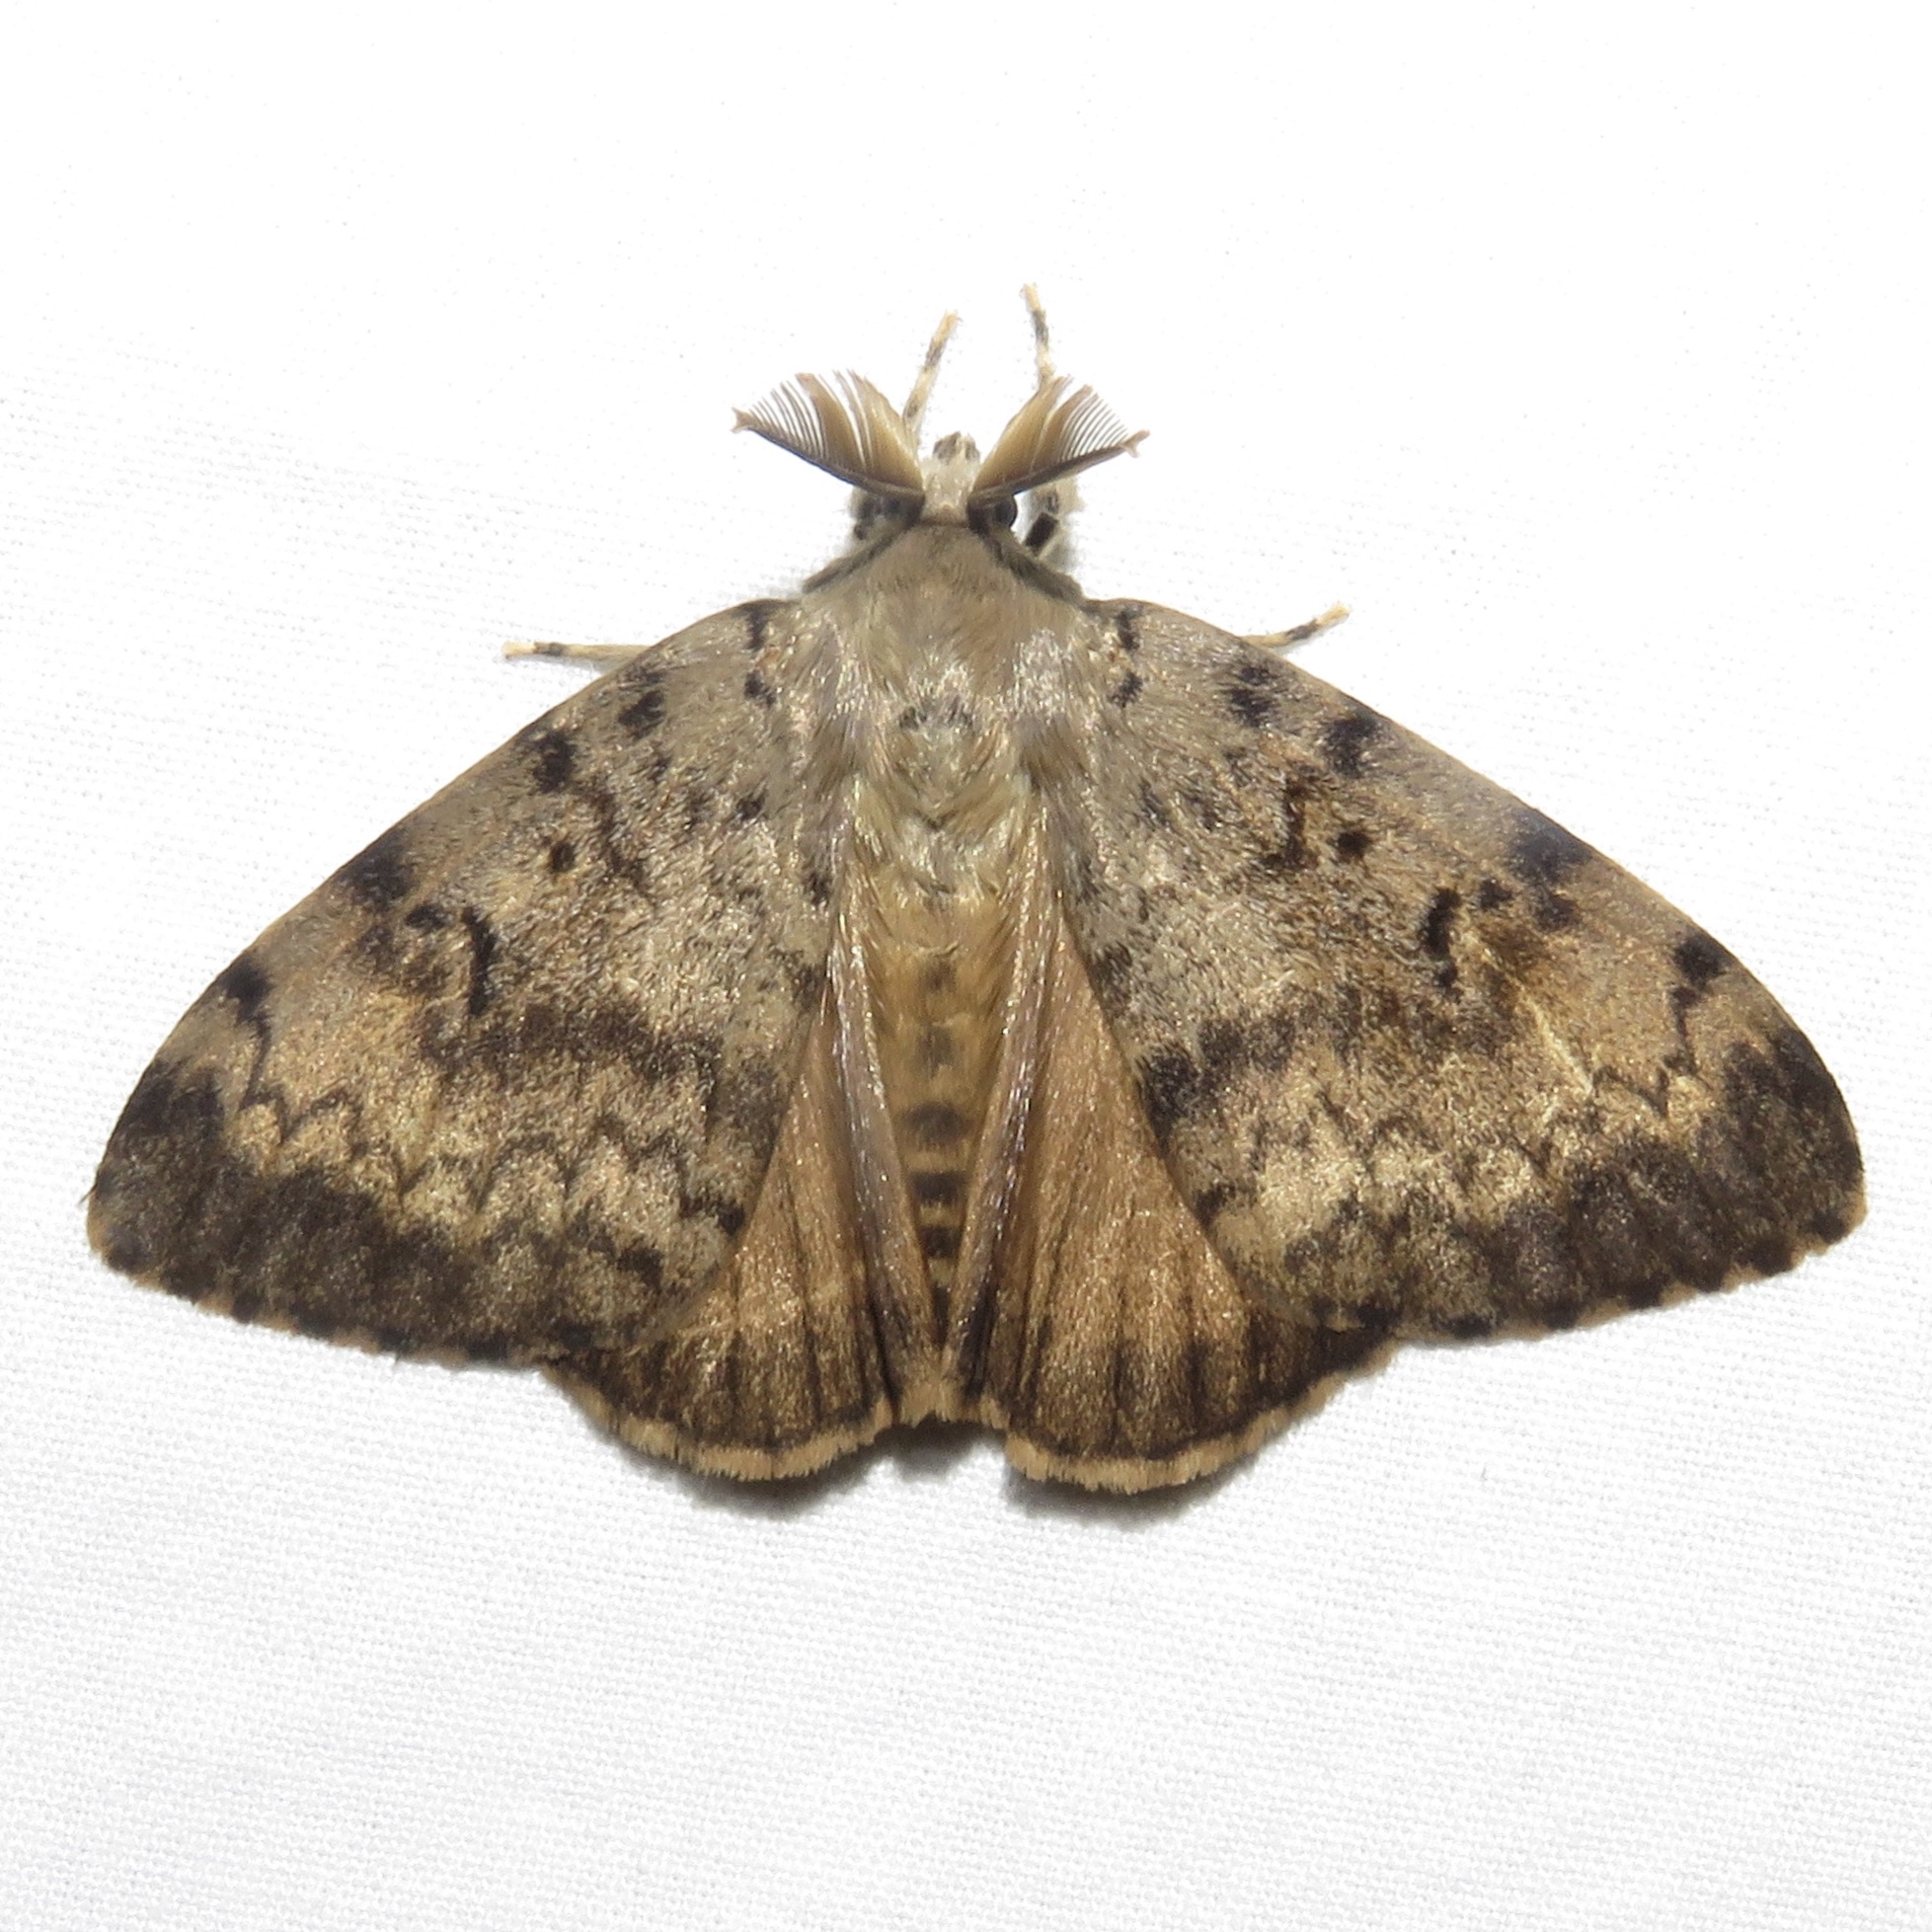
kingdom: Animalia
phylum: Arthropoda
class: Insecta
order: Lepidoptera
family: Erebidae
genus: Lymantria
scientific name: Lymantria dispar
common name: Gypsy moth
